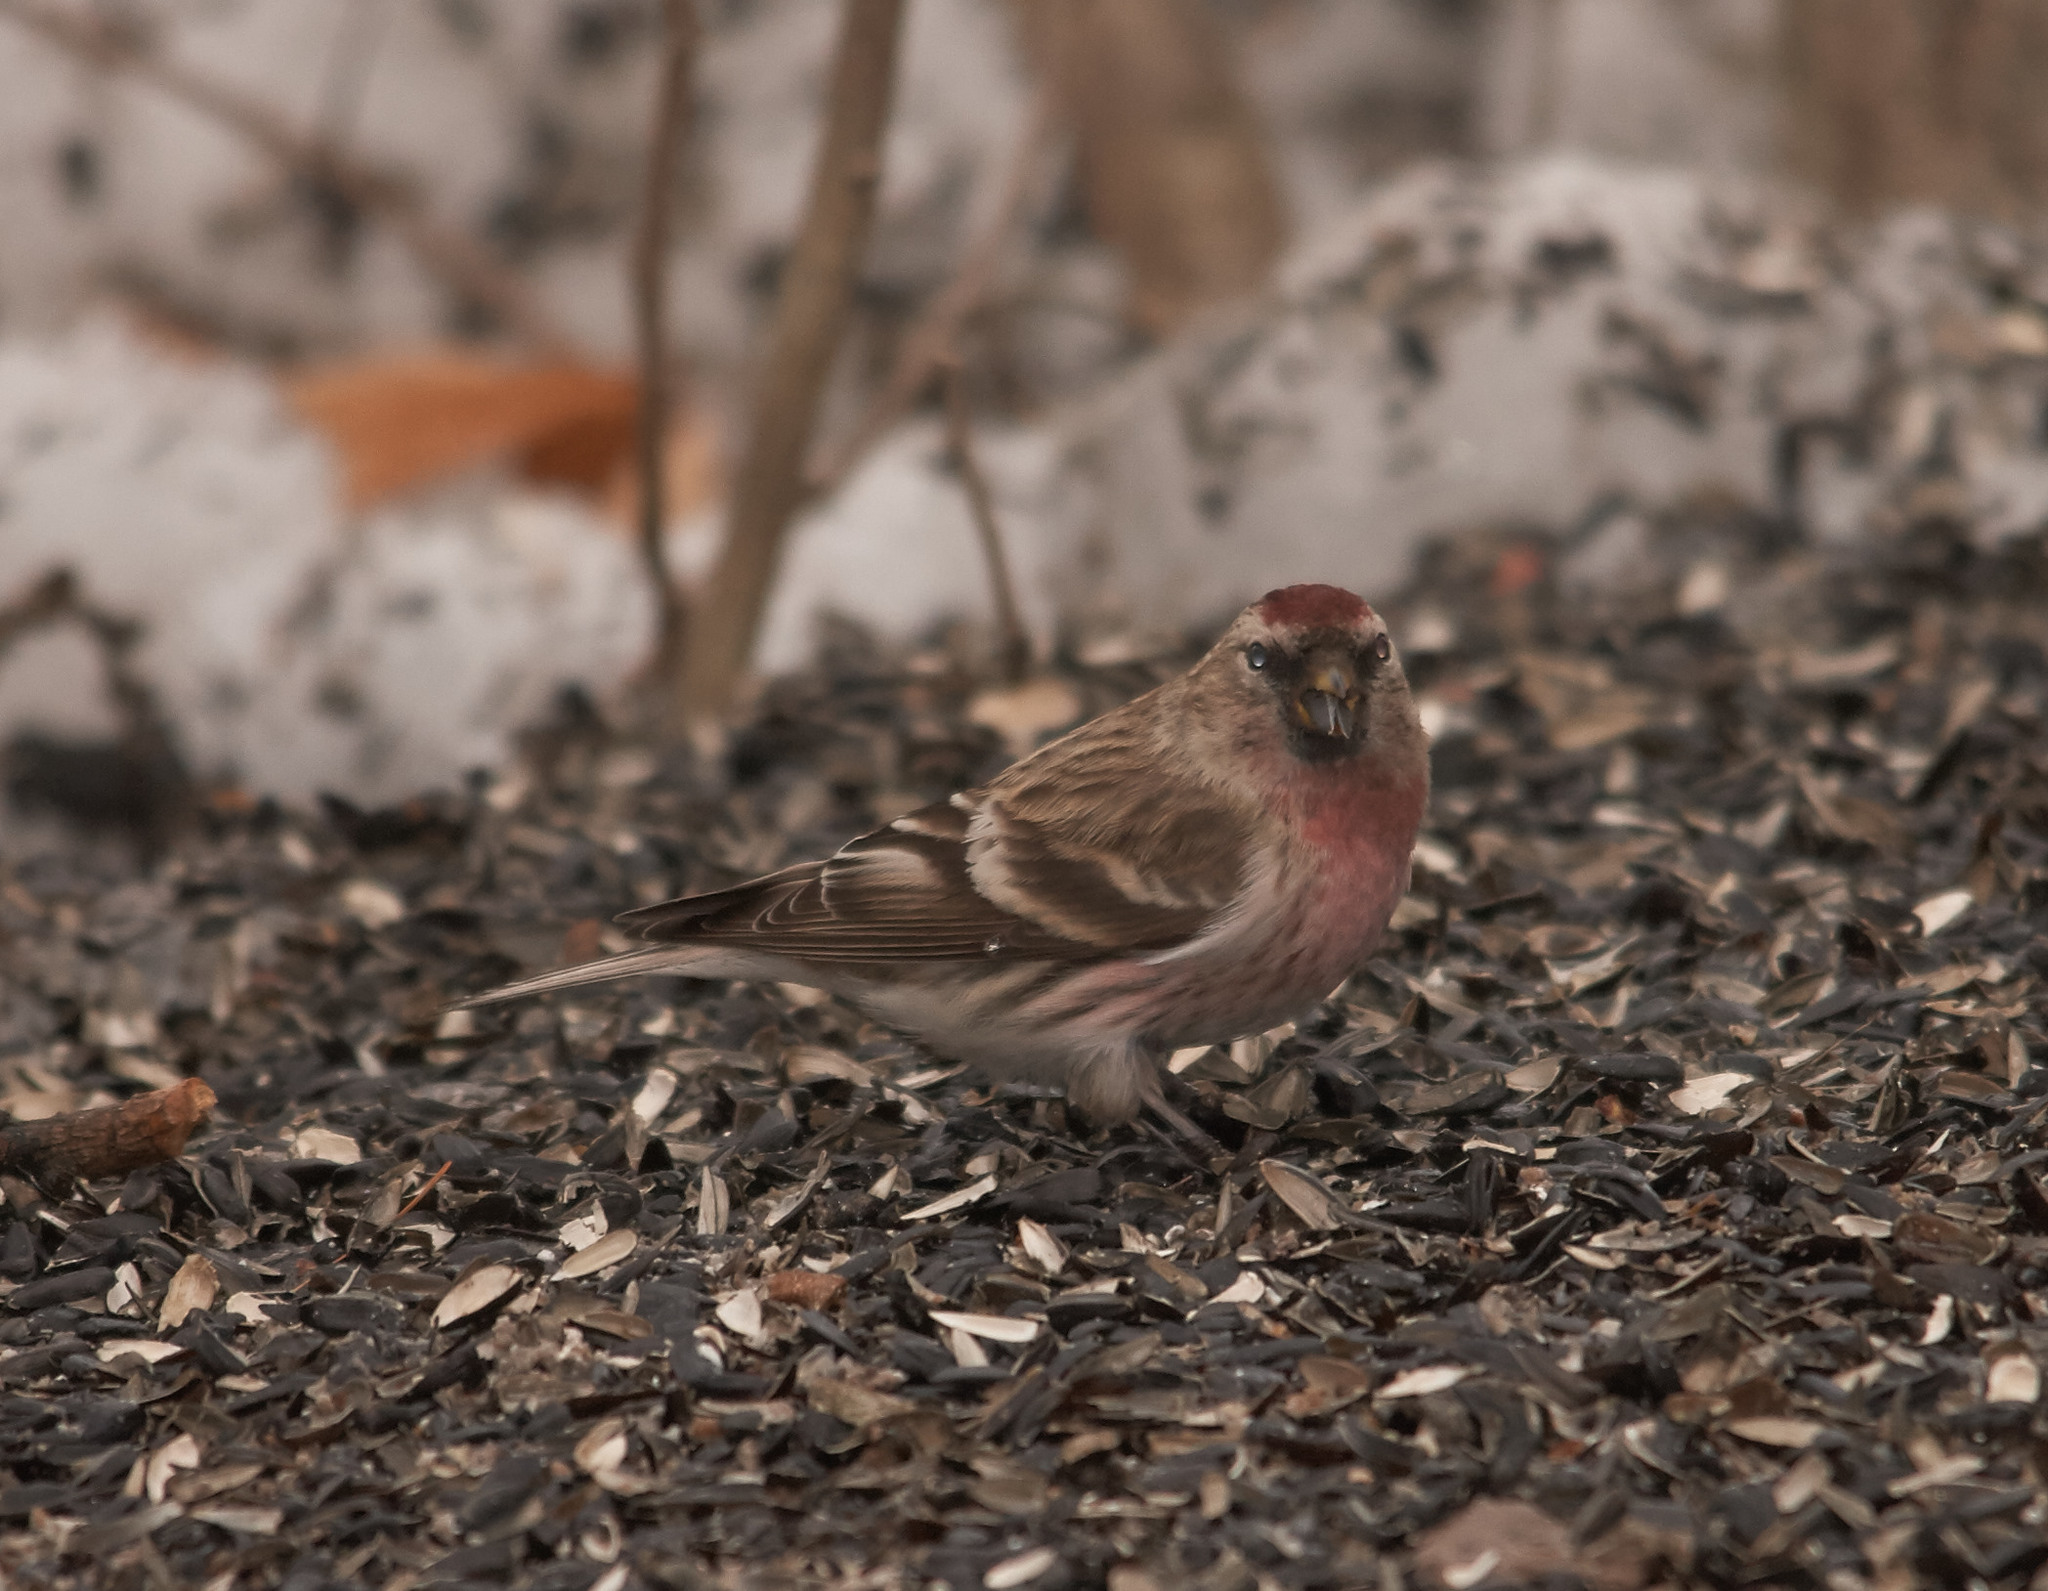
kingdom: Animalia
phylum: Chordata
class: Aves
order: Passeriformes
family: Fringillidae
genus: Acanthis
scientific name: Acanthis flammea
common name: Common redpoll
